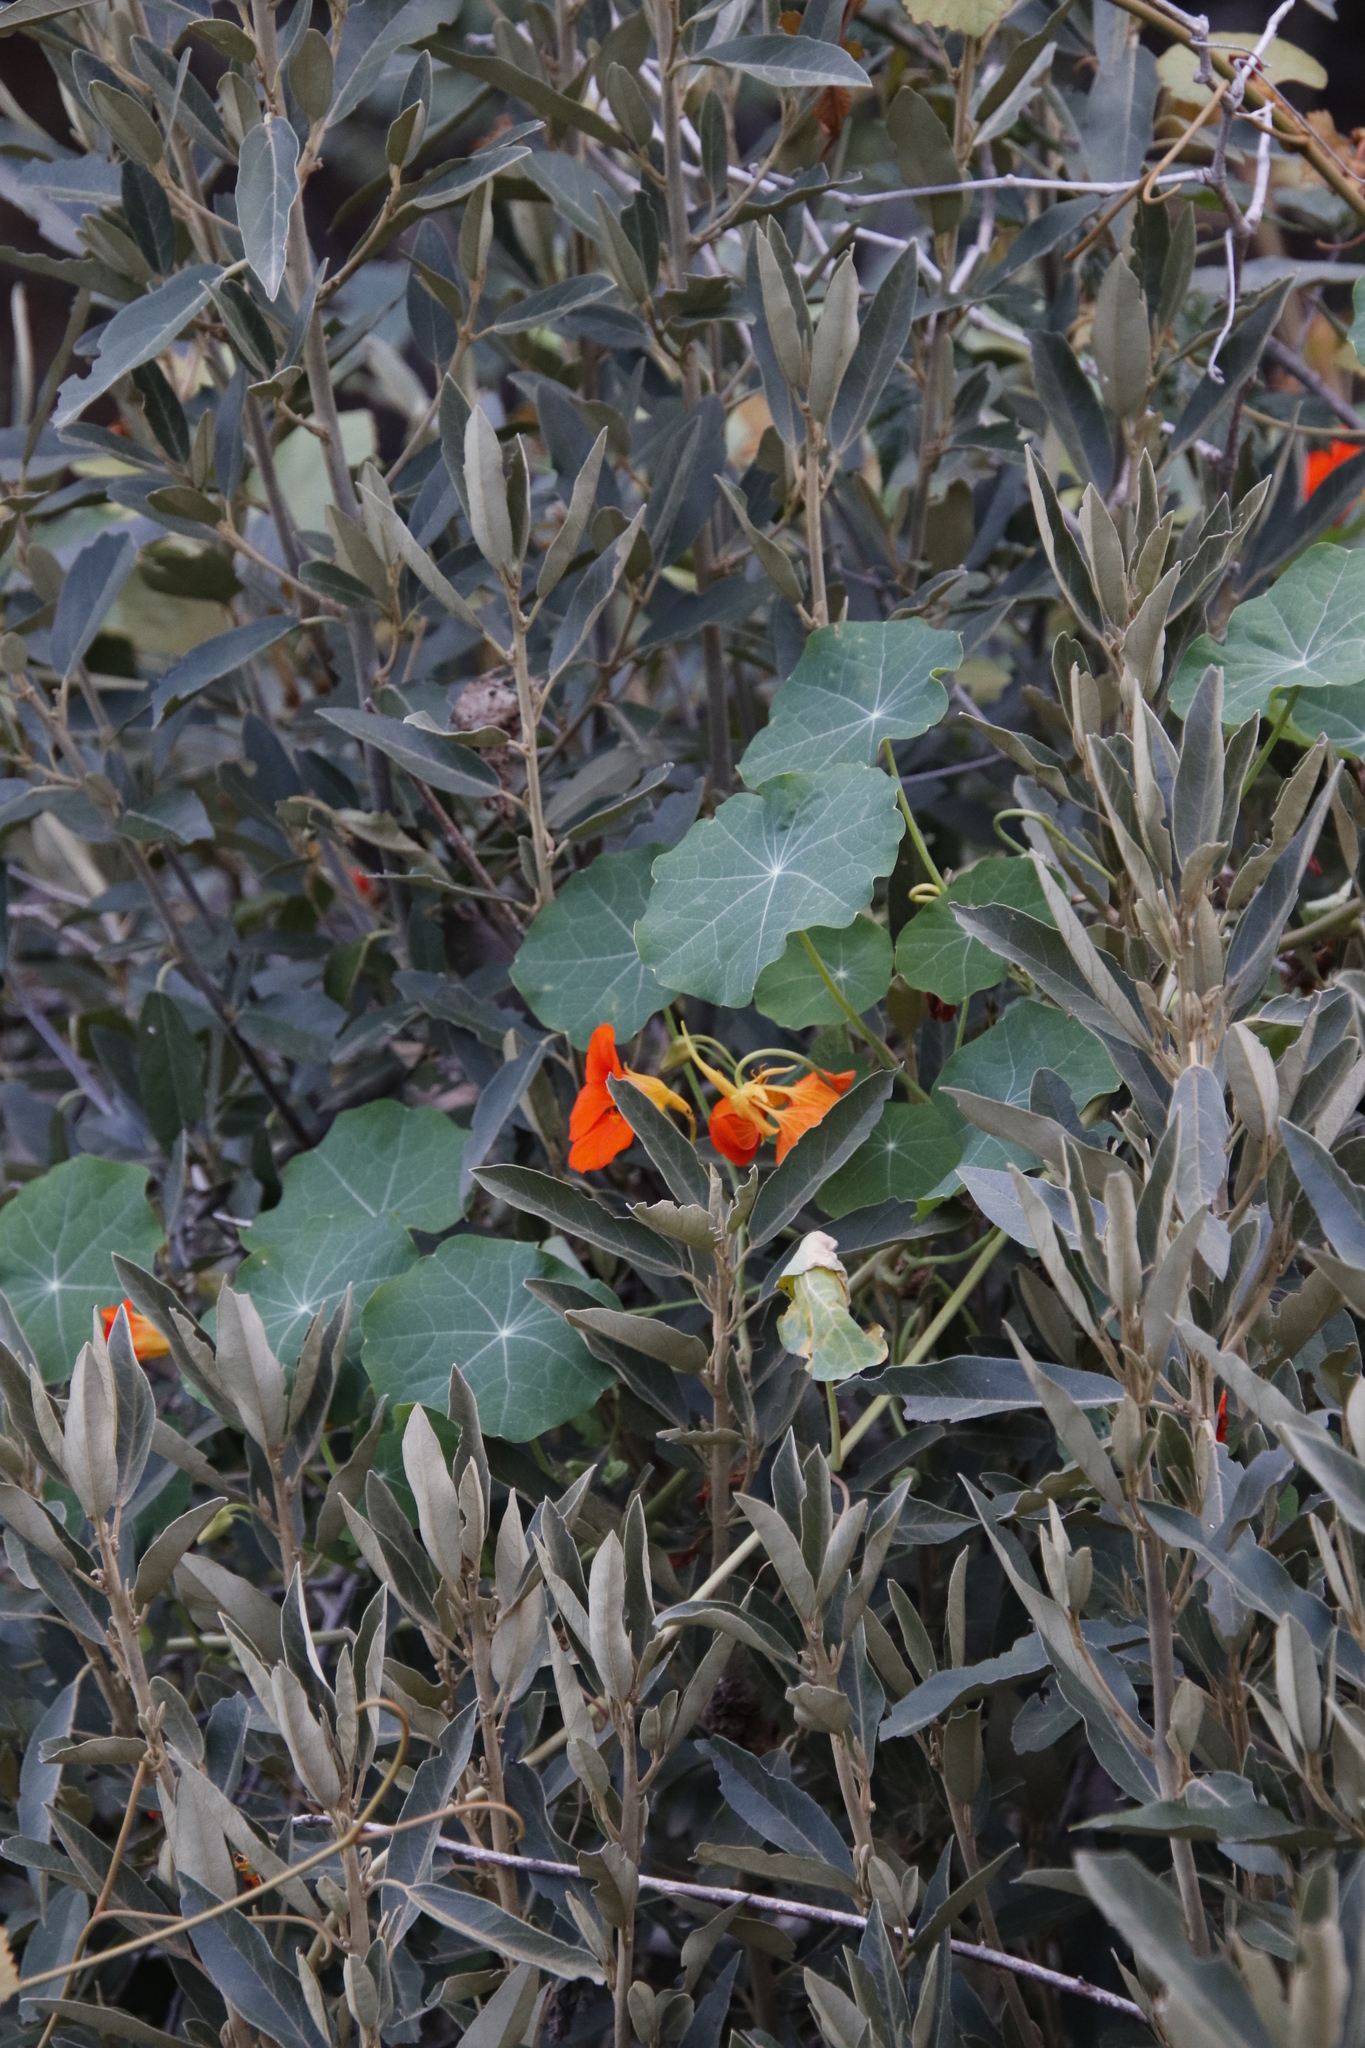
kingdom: Plantae
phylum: Tracheophyta
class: Magnoliopsida
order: Brassicales
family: Tropaeolaceae
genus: Tropaeolum
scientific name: Tropaeolum majus
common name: Nasturtium
